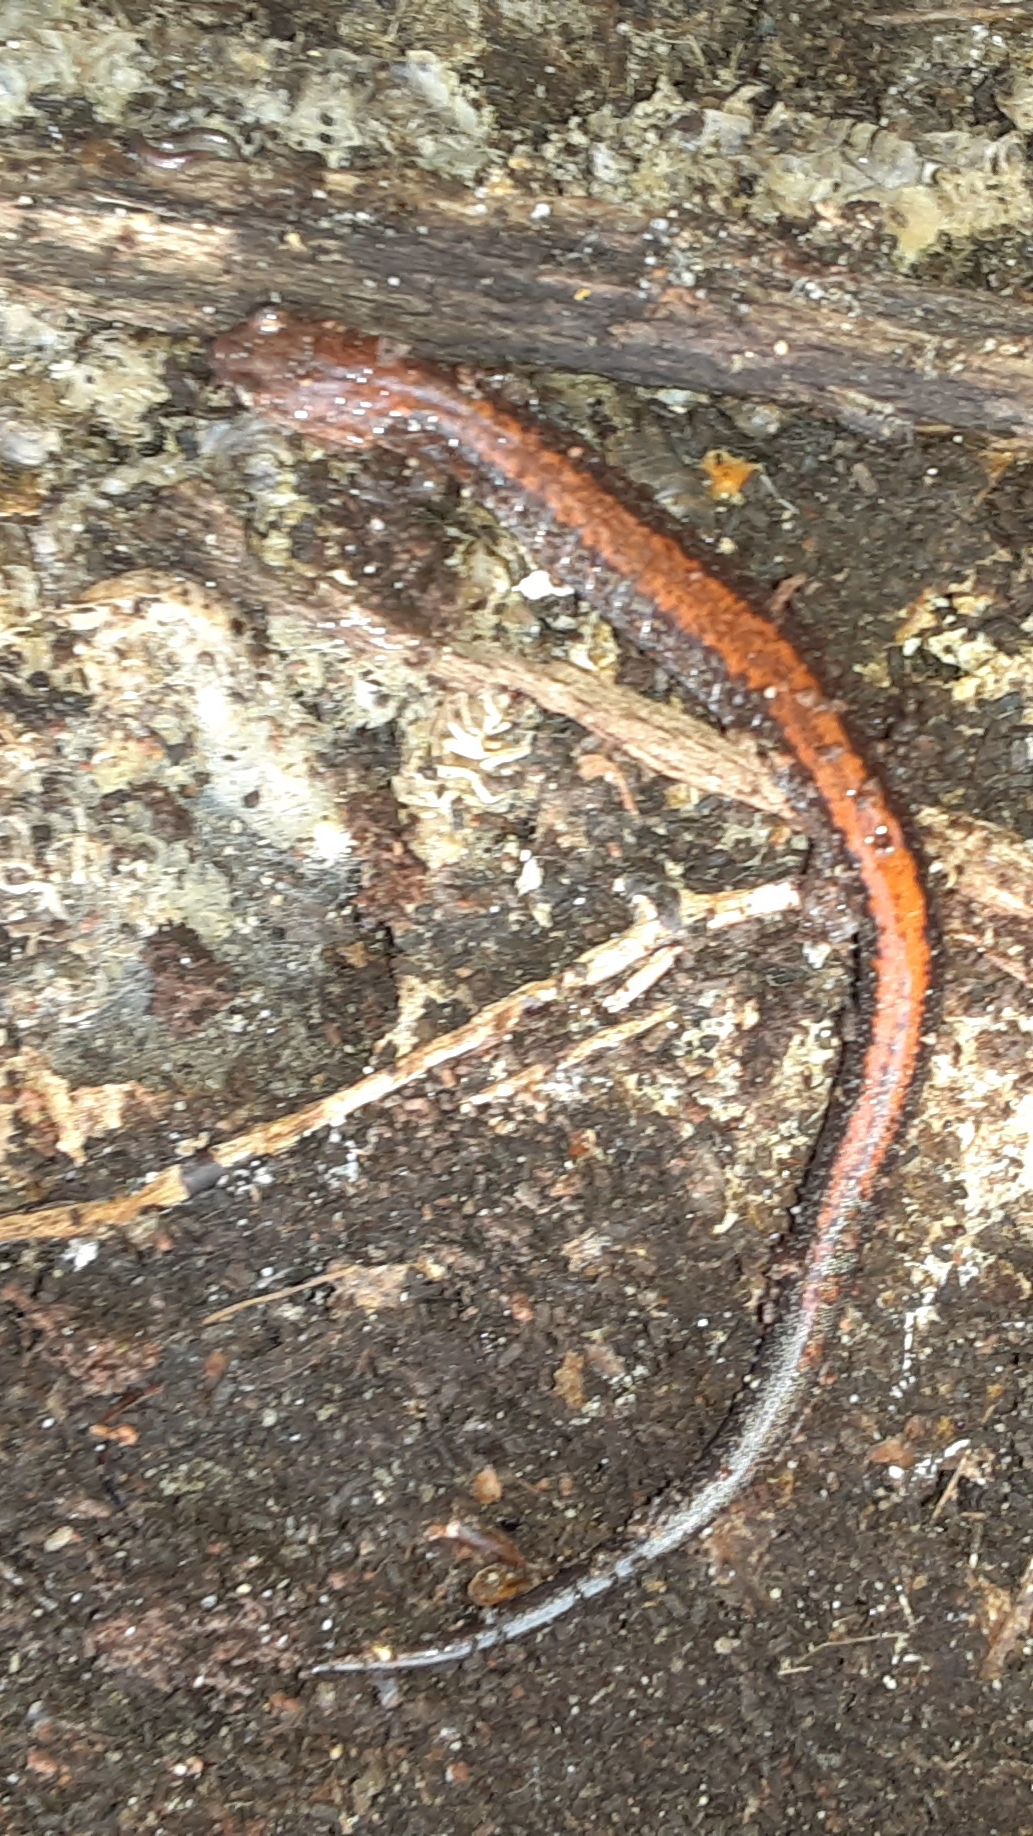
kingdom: Animalia
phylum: Chordata
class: Amphibia
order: Caudata
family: Plethodontidae
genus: Plethodon
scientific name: Plethodon cinereus
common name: Redback salamander
